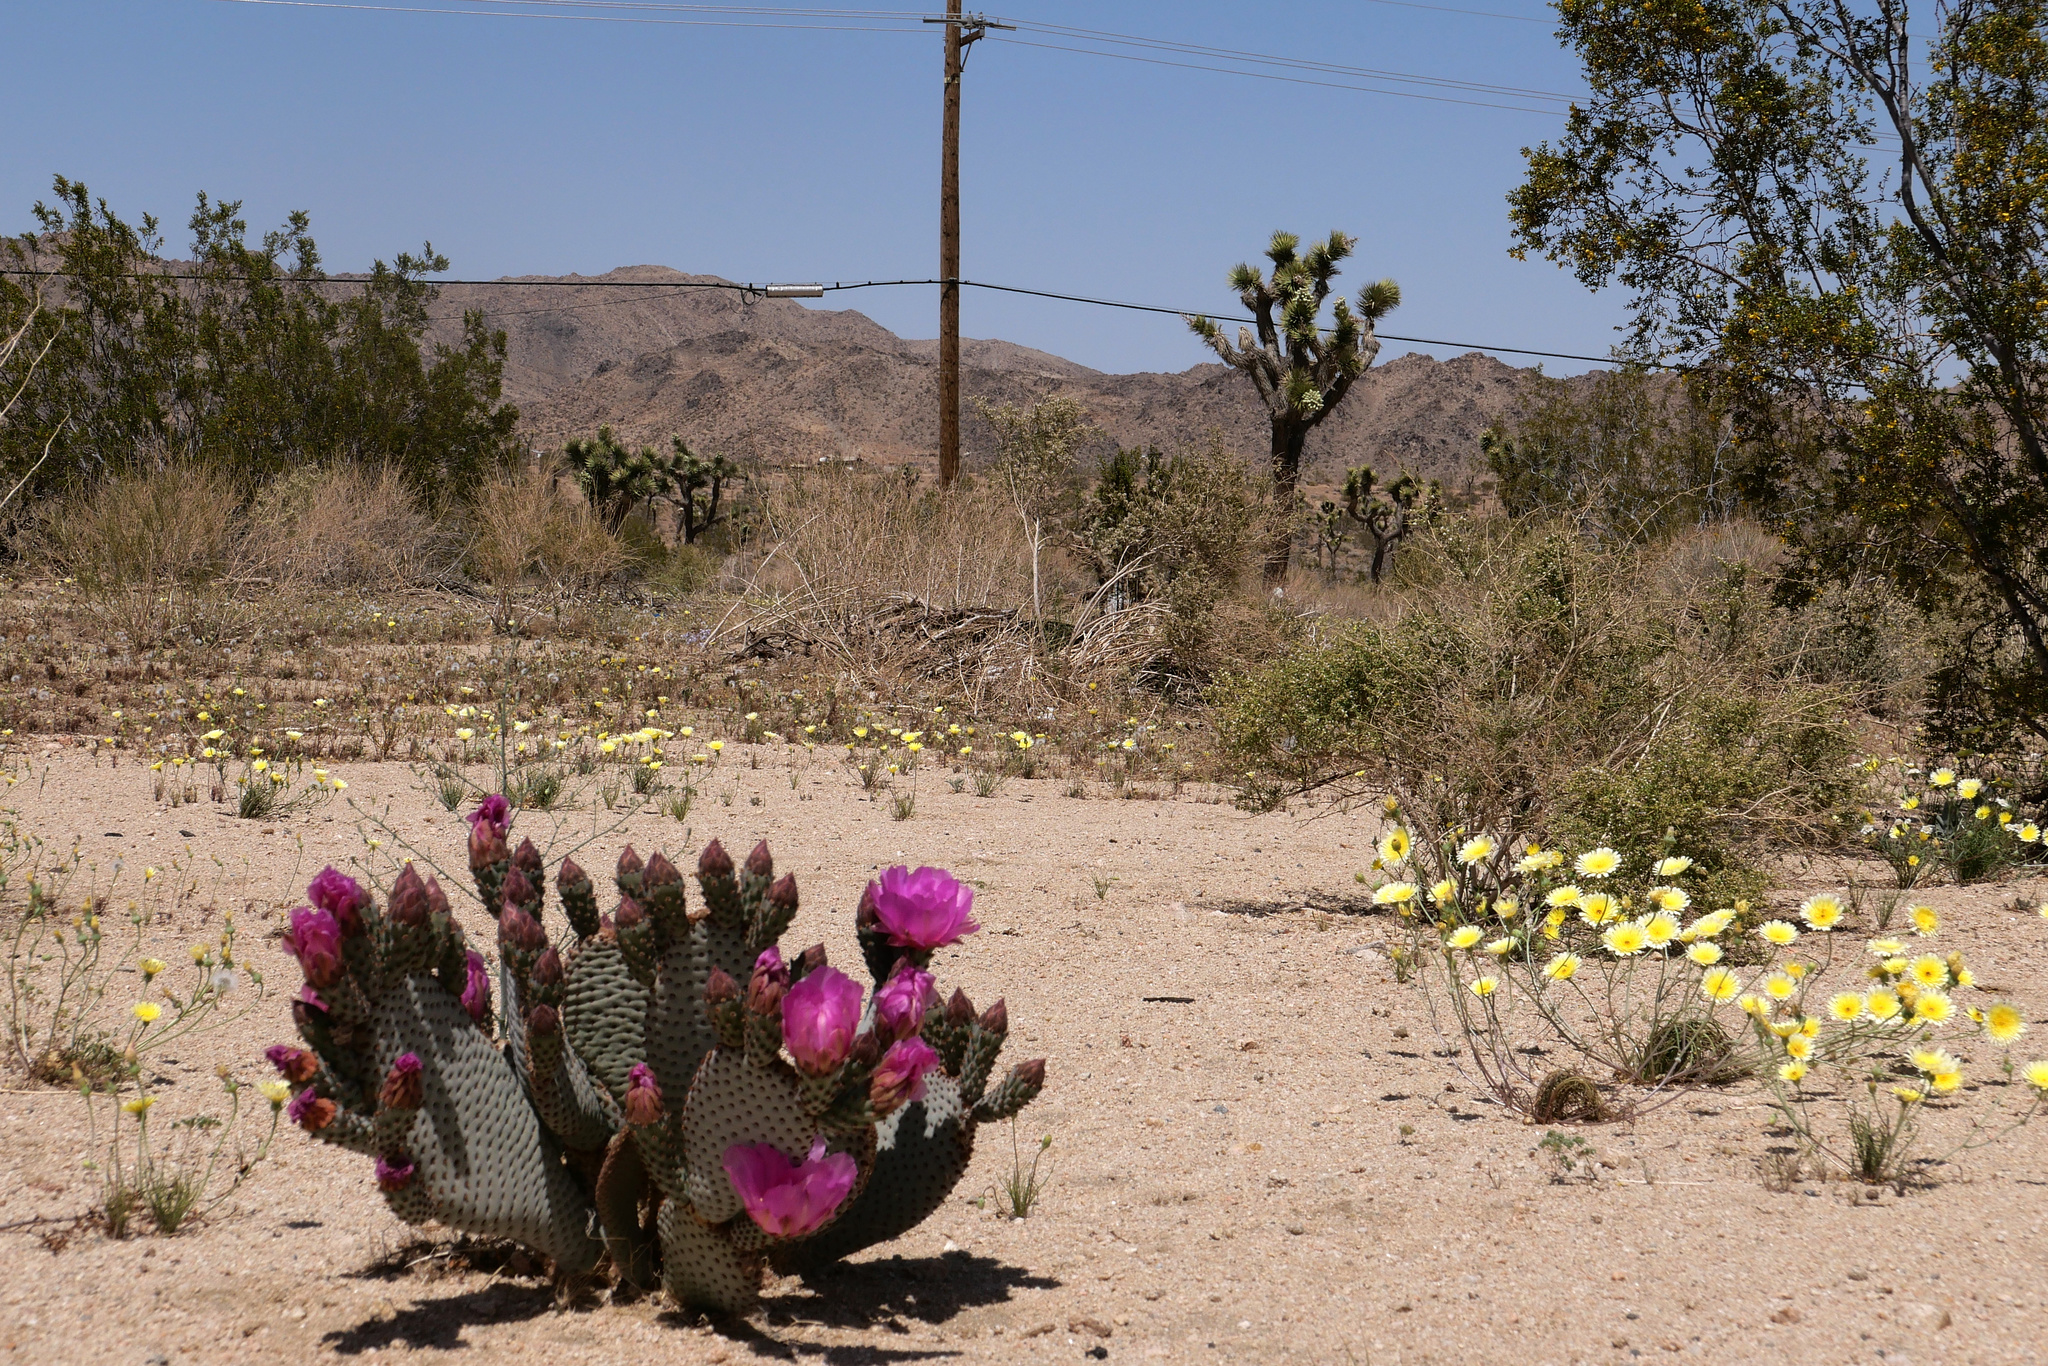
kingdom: Plantae
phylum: Tracheophyta
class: Magnoliopsida
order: Caryophyllales
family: Cactaceae
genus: Opuntia
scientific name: Opuntia basilaris
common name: Beavertail prickly-pear
